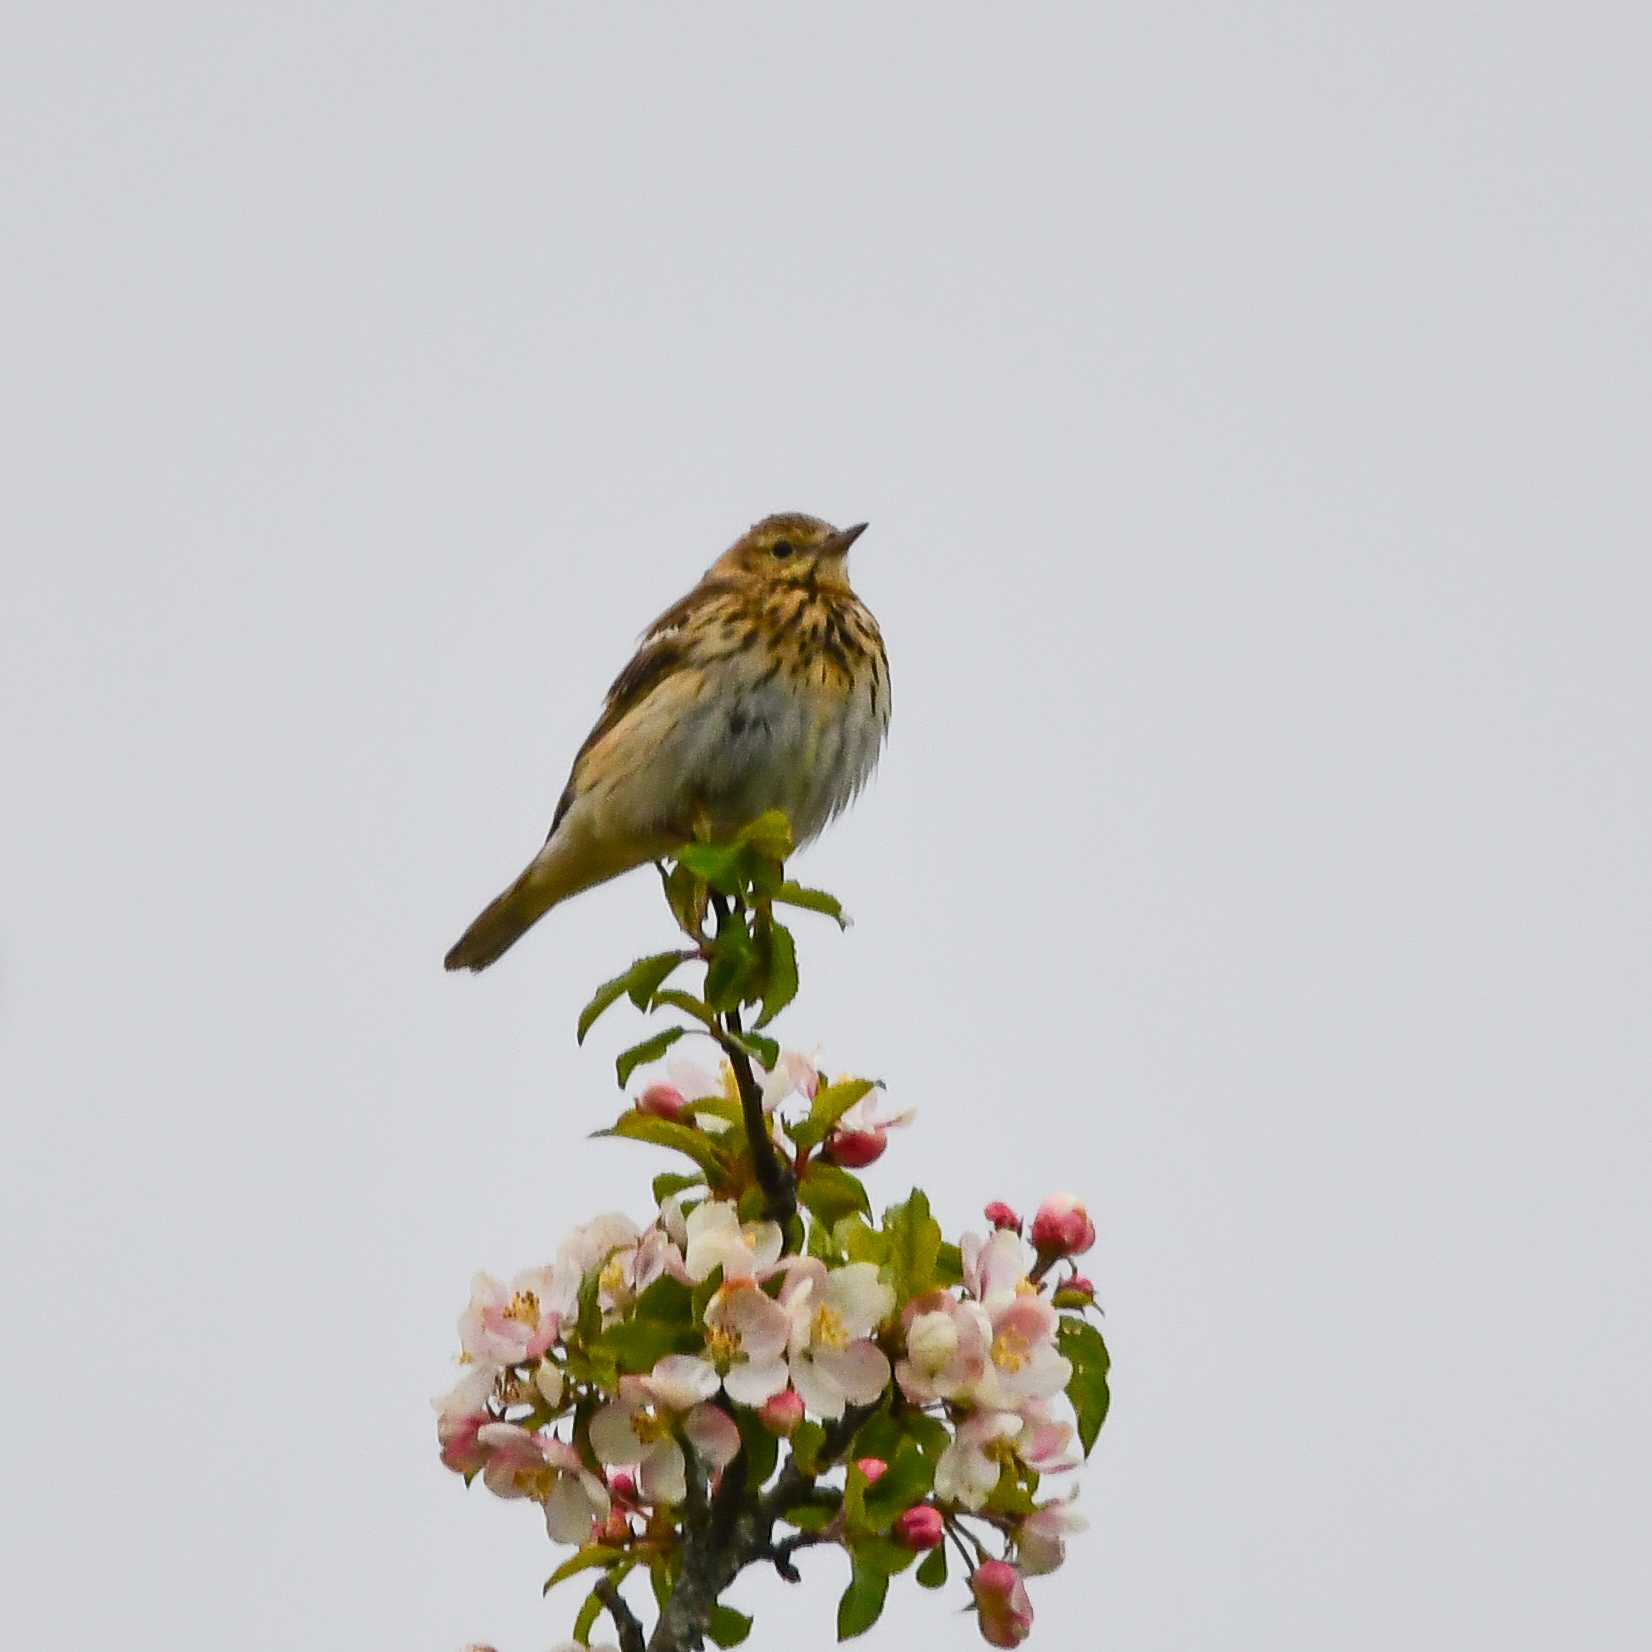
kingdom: Animalia
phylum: Chordata
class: Aves
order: Passeriformes
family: Motacillidae
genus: Anthus
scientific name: Anthus trivialis
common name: Tree pipit
